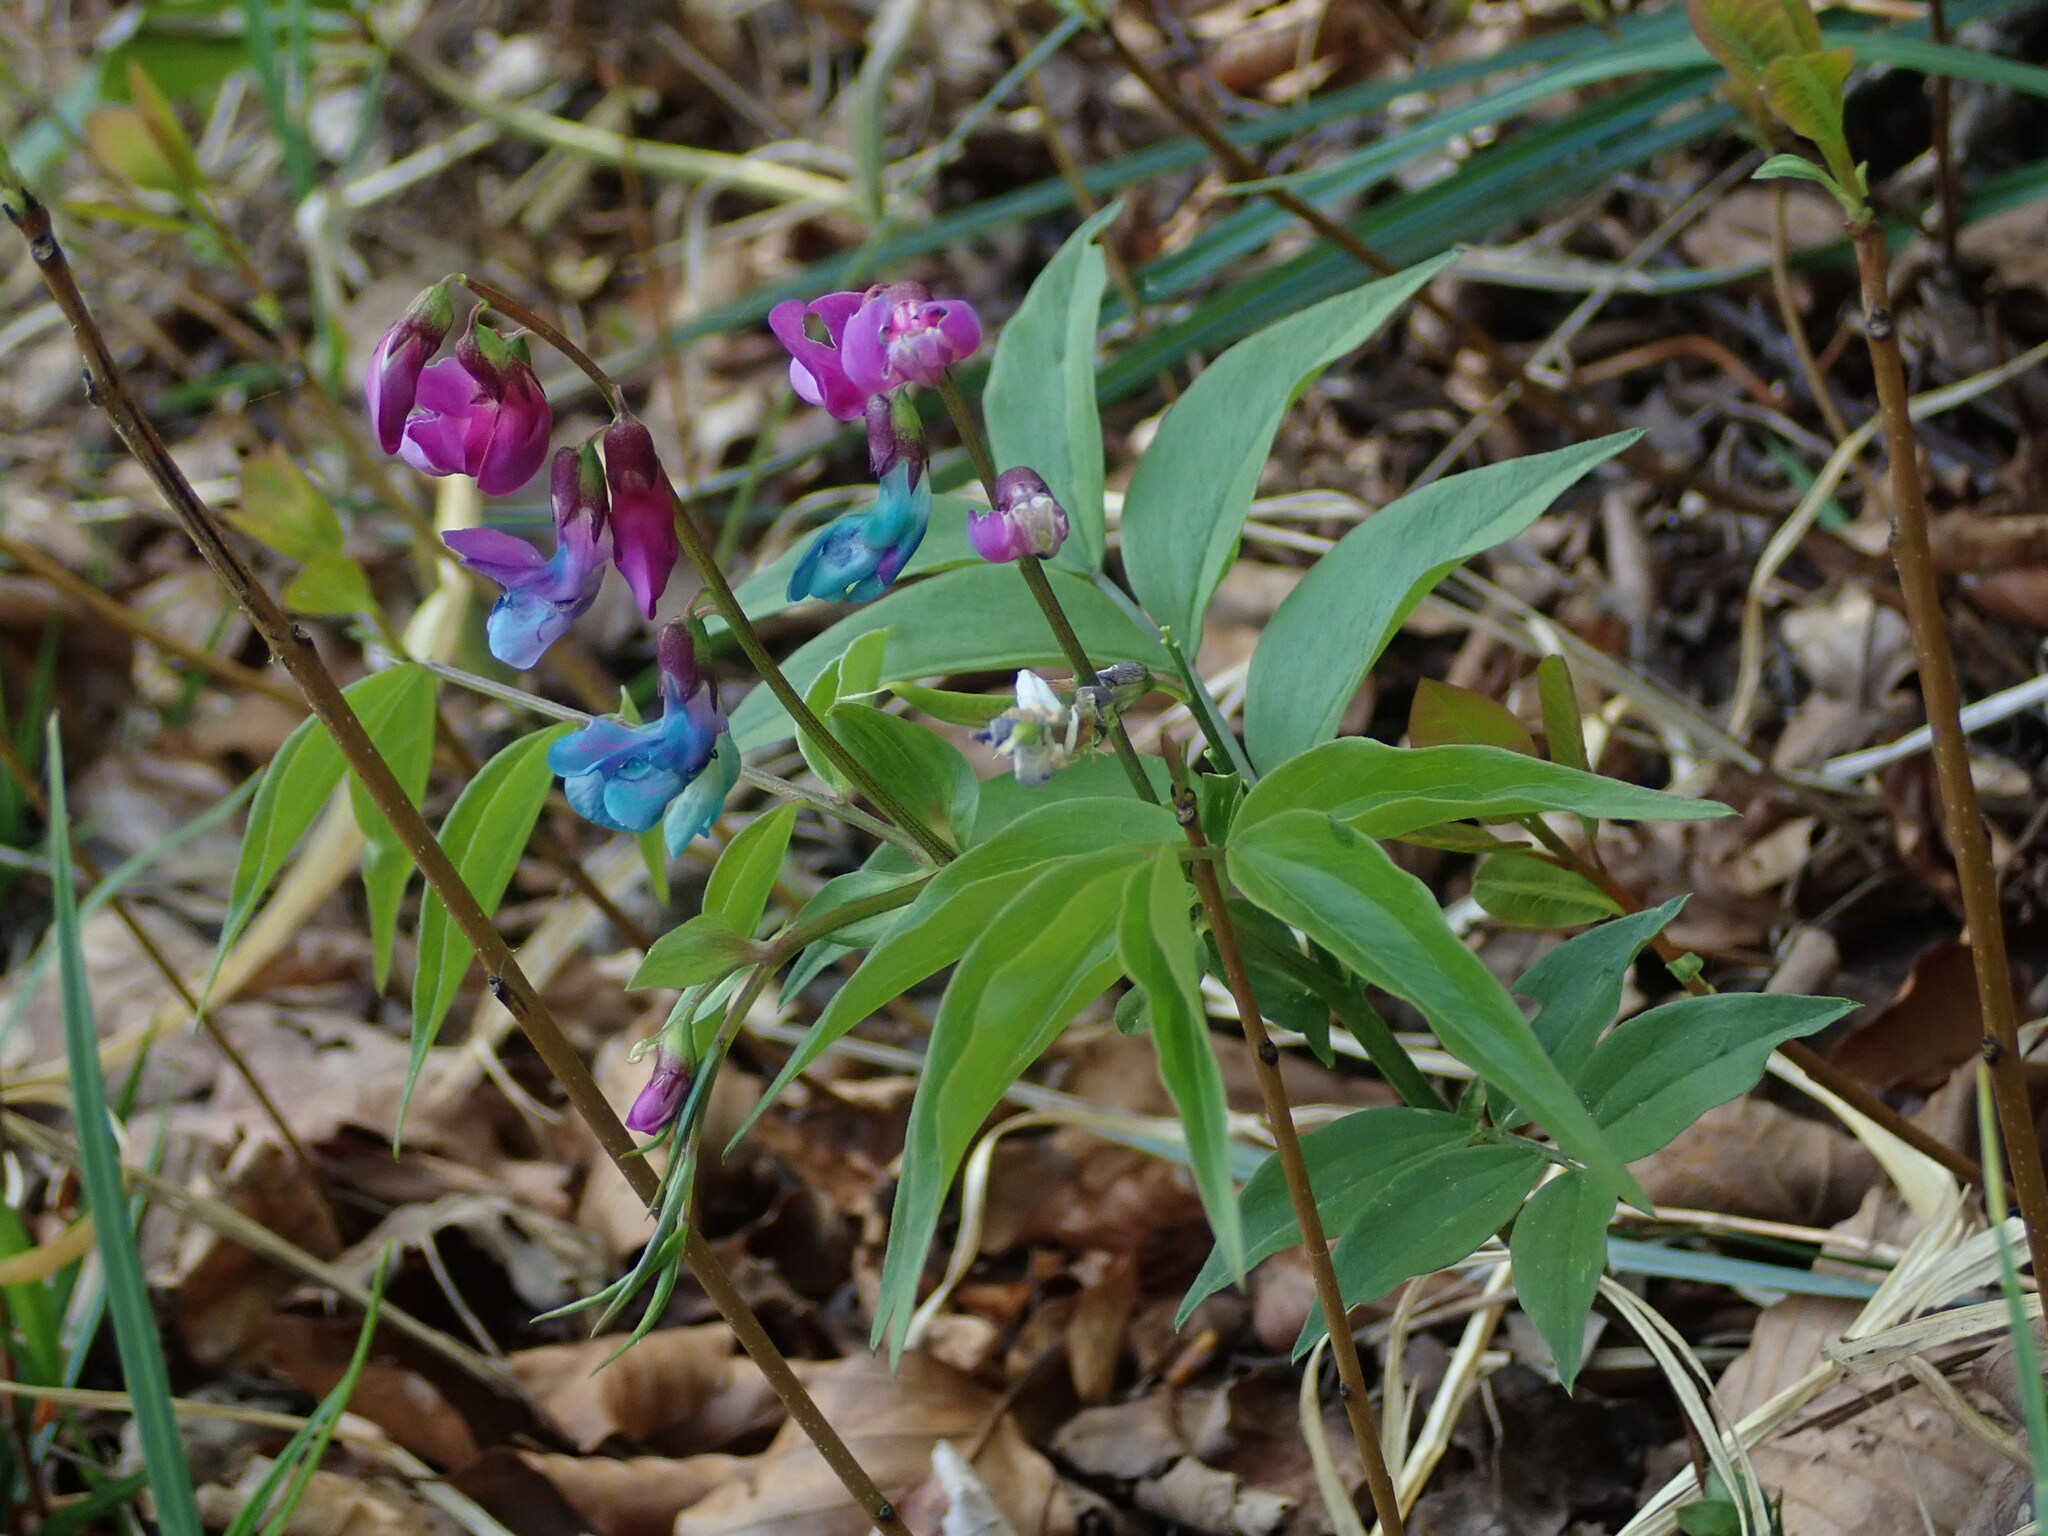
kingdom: Plantae
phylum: Tracheophyta
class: Magnoliopsida
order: Fabales
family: Fabaceae
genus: Lathyrus
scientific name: Lathyrus vernus
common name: Spring pea
